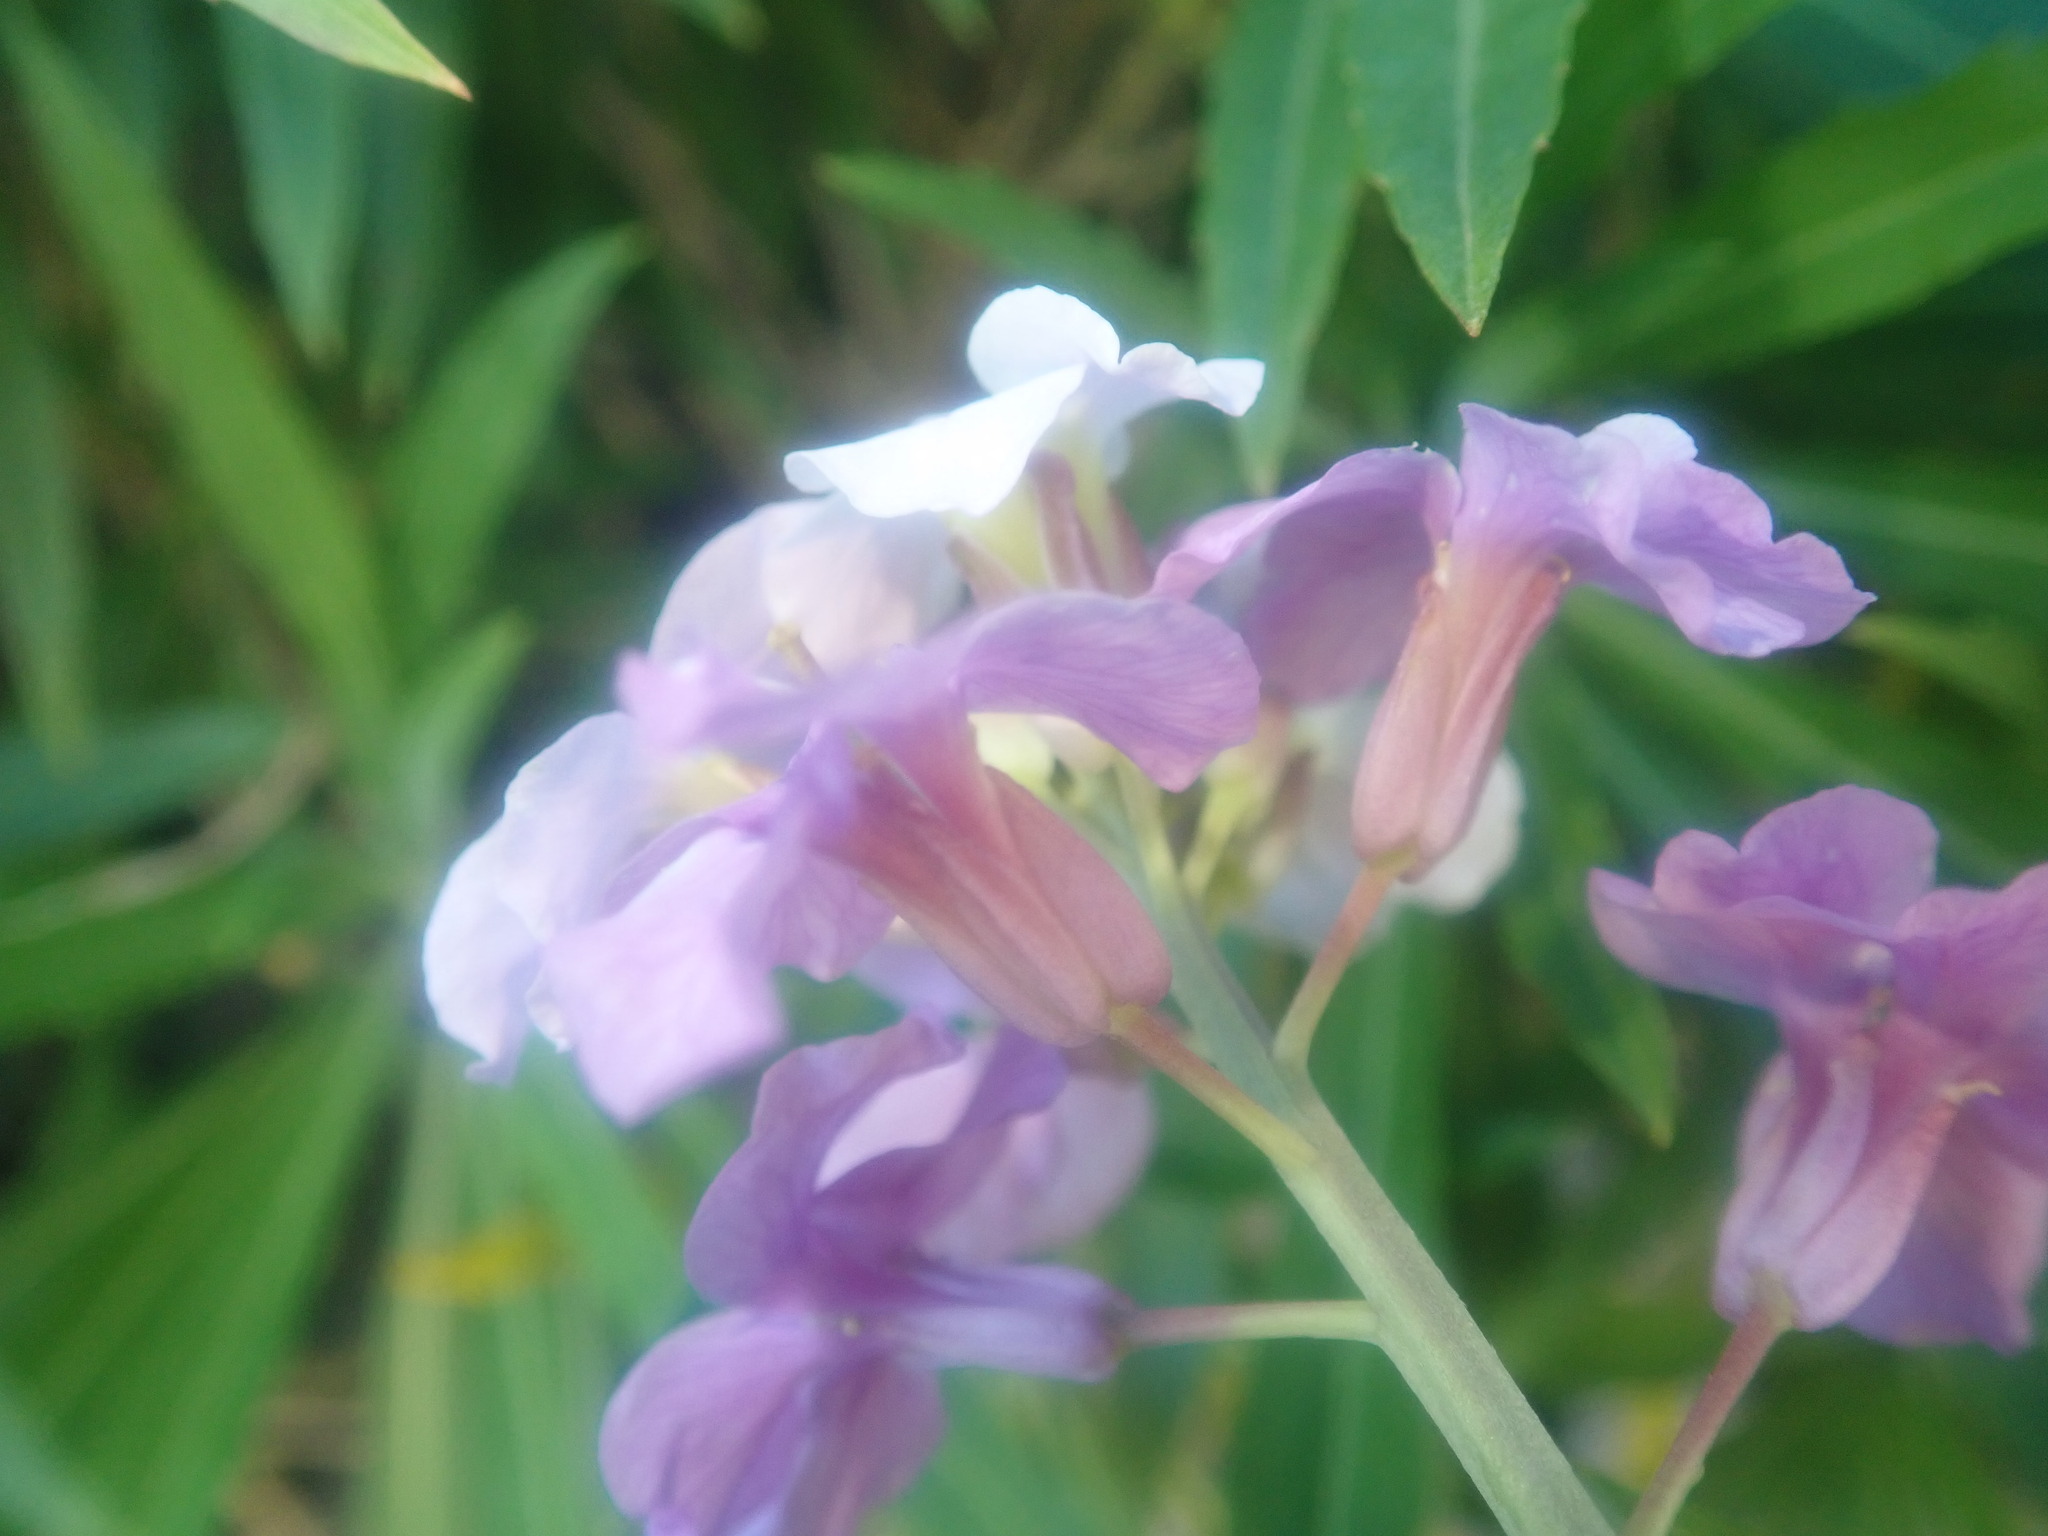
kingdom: Plantae
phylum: Tracheophyta
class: Magnoliopsida
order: Brassicales
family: Brassicaceae
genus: Erysimum
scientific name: Erysimum bicolor
